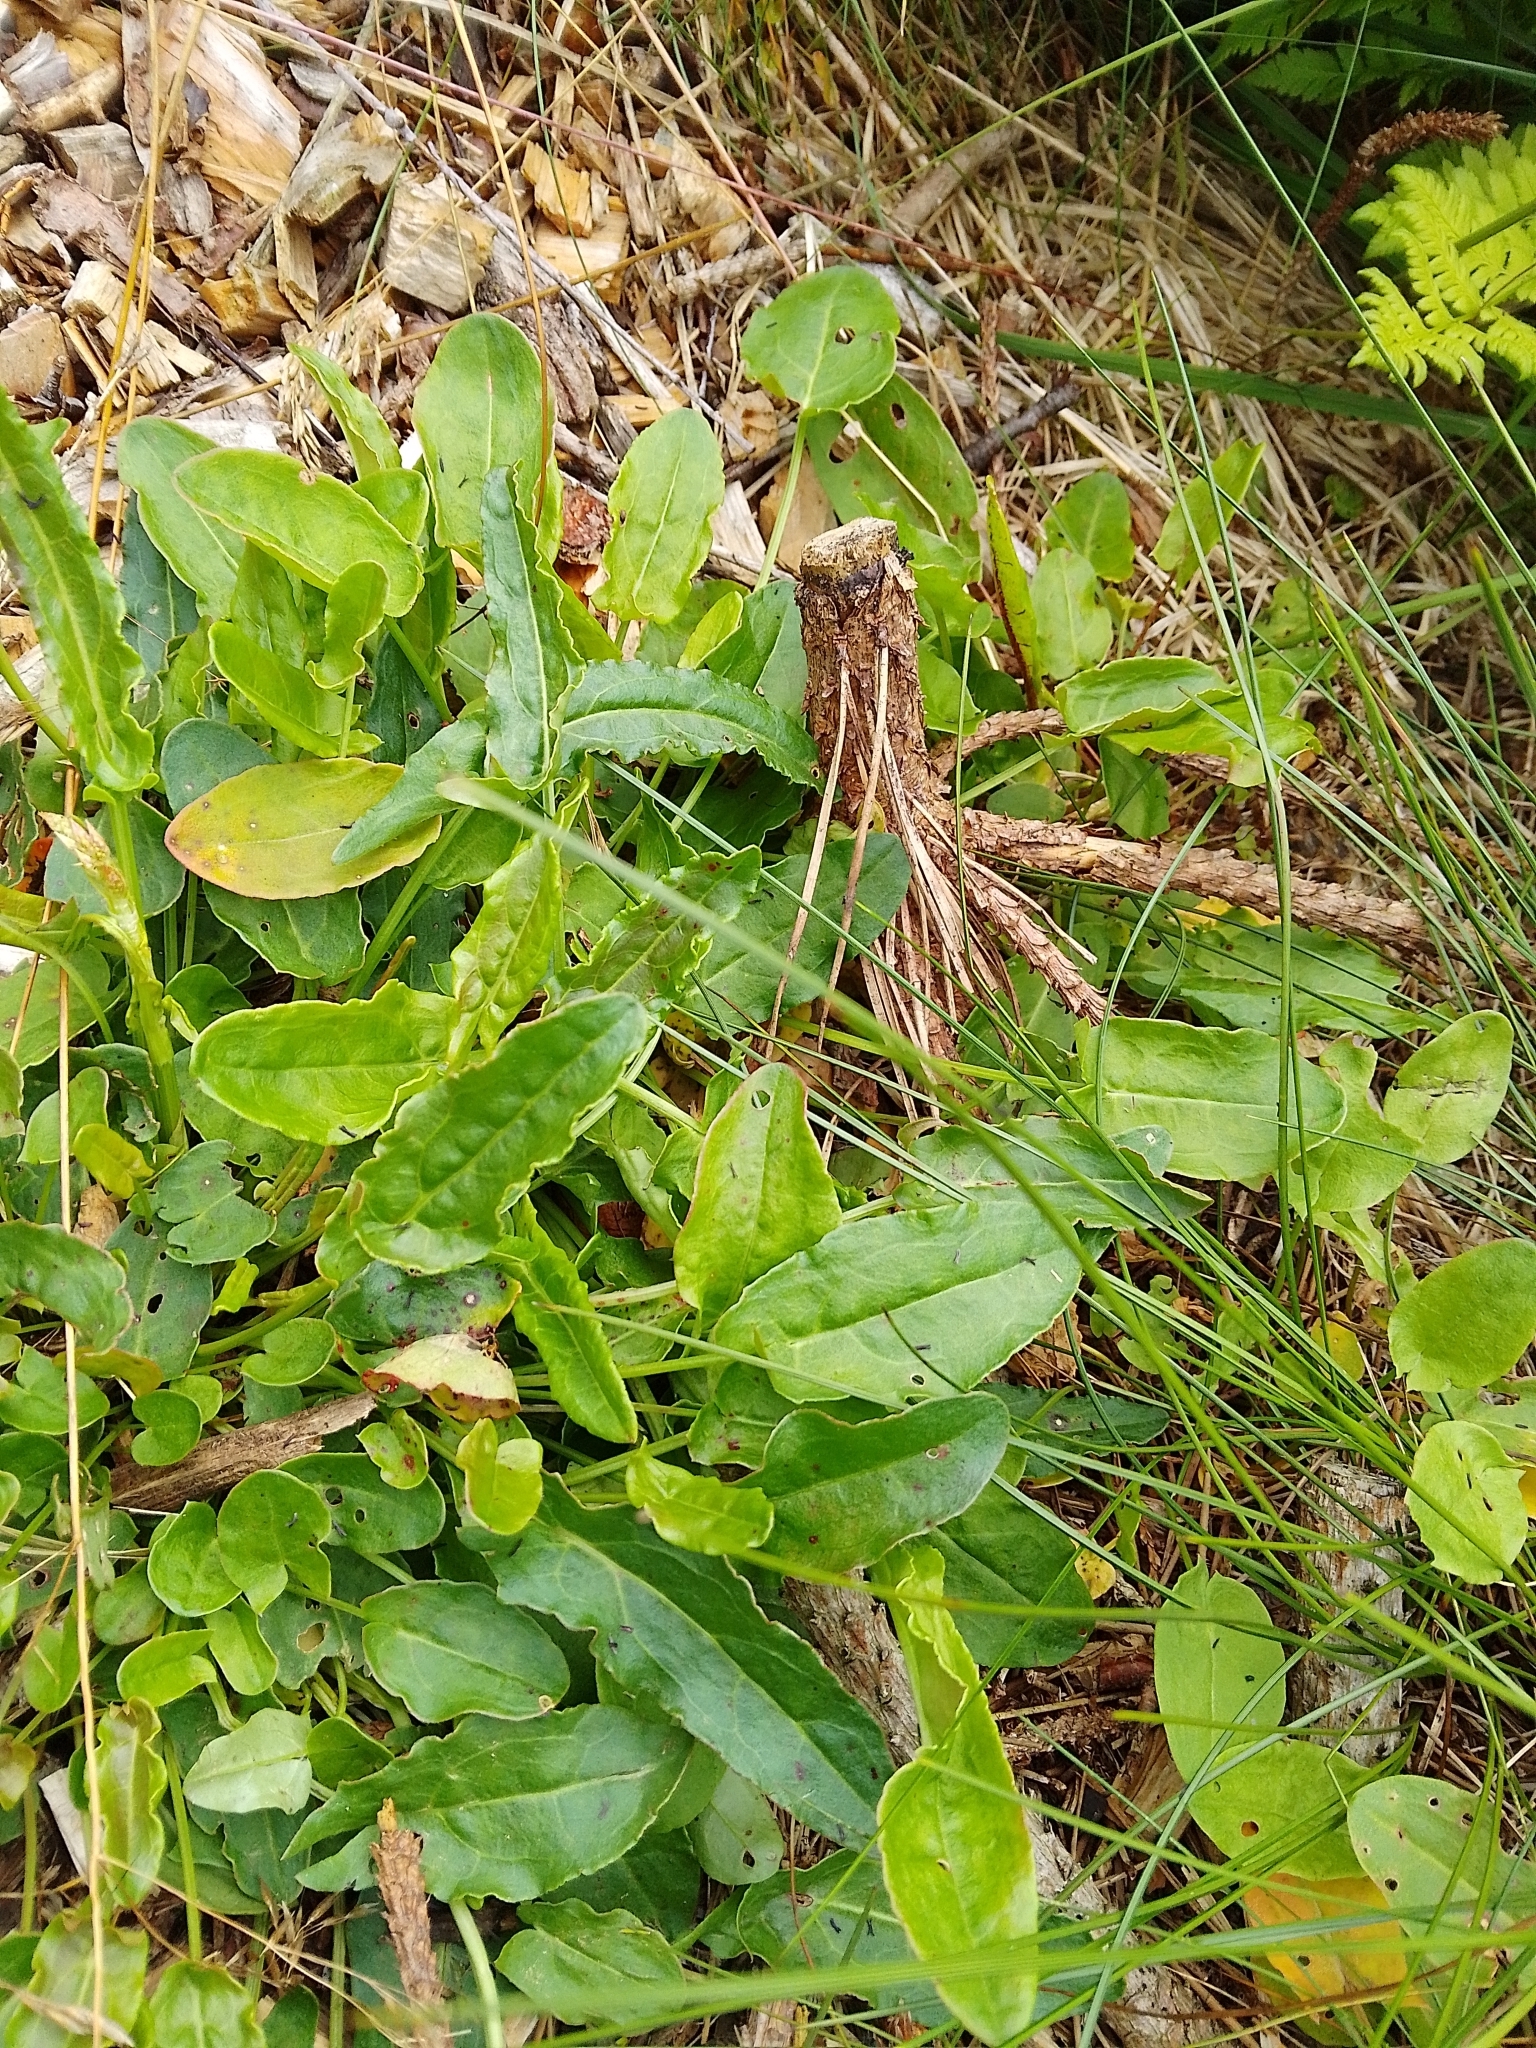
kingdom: Plantae
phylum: Tracheophyta
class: Magnoliopsida
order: Caryophyllales
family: Polygonaceae
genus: Rumex
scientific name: Rumex acetosa
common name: Garden sorrel
